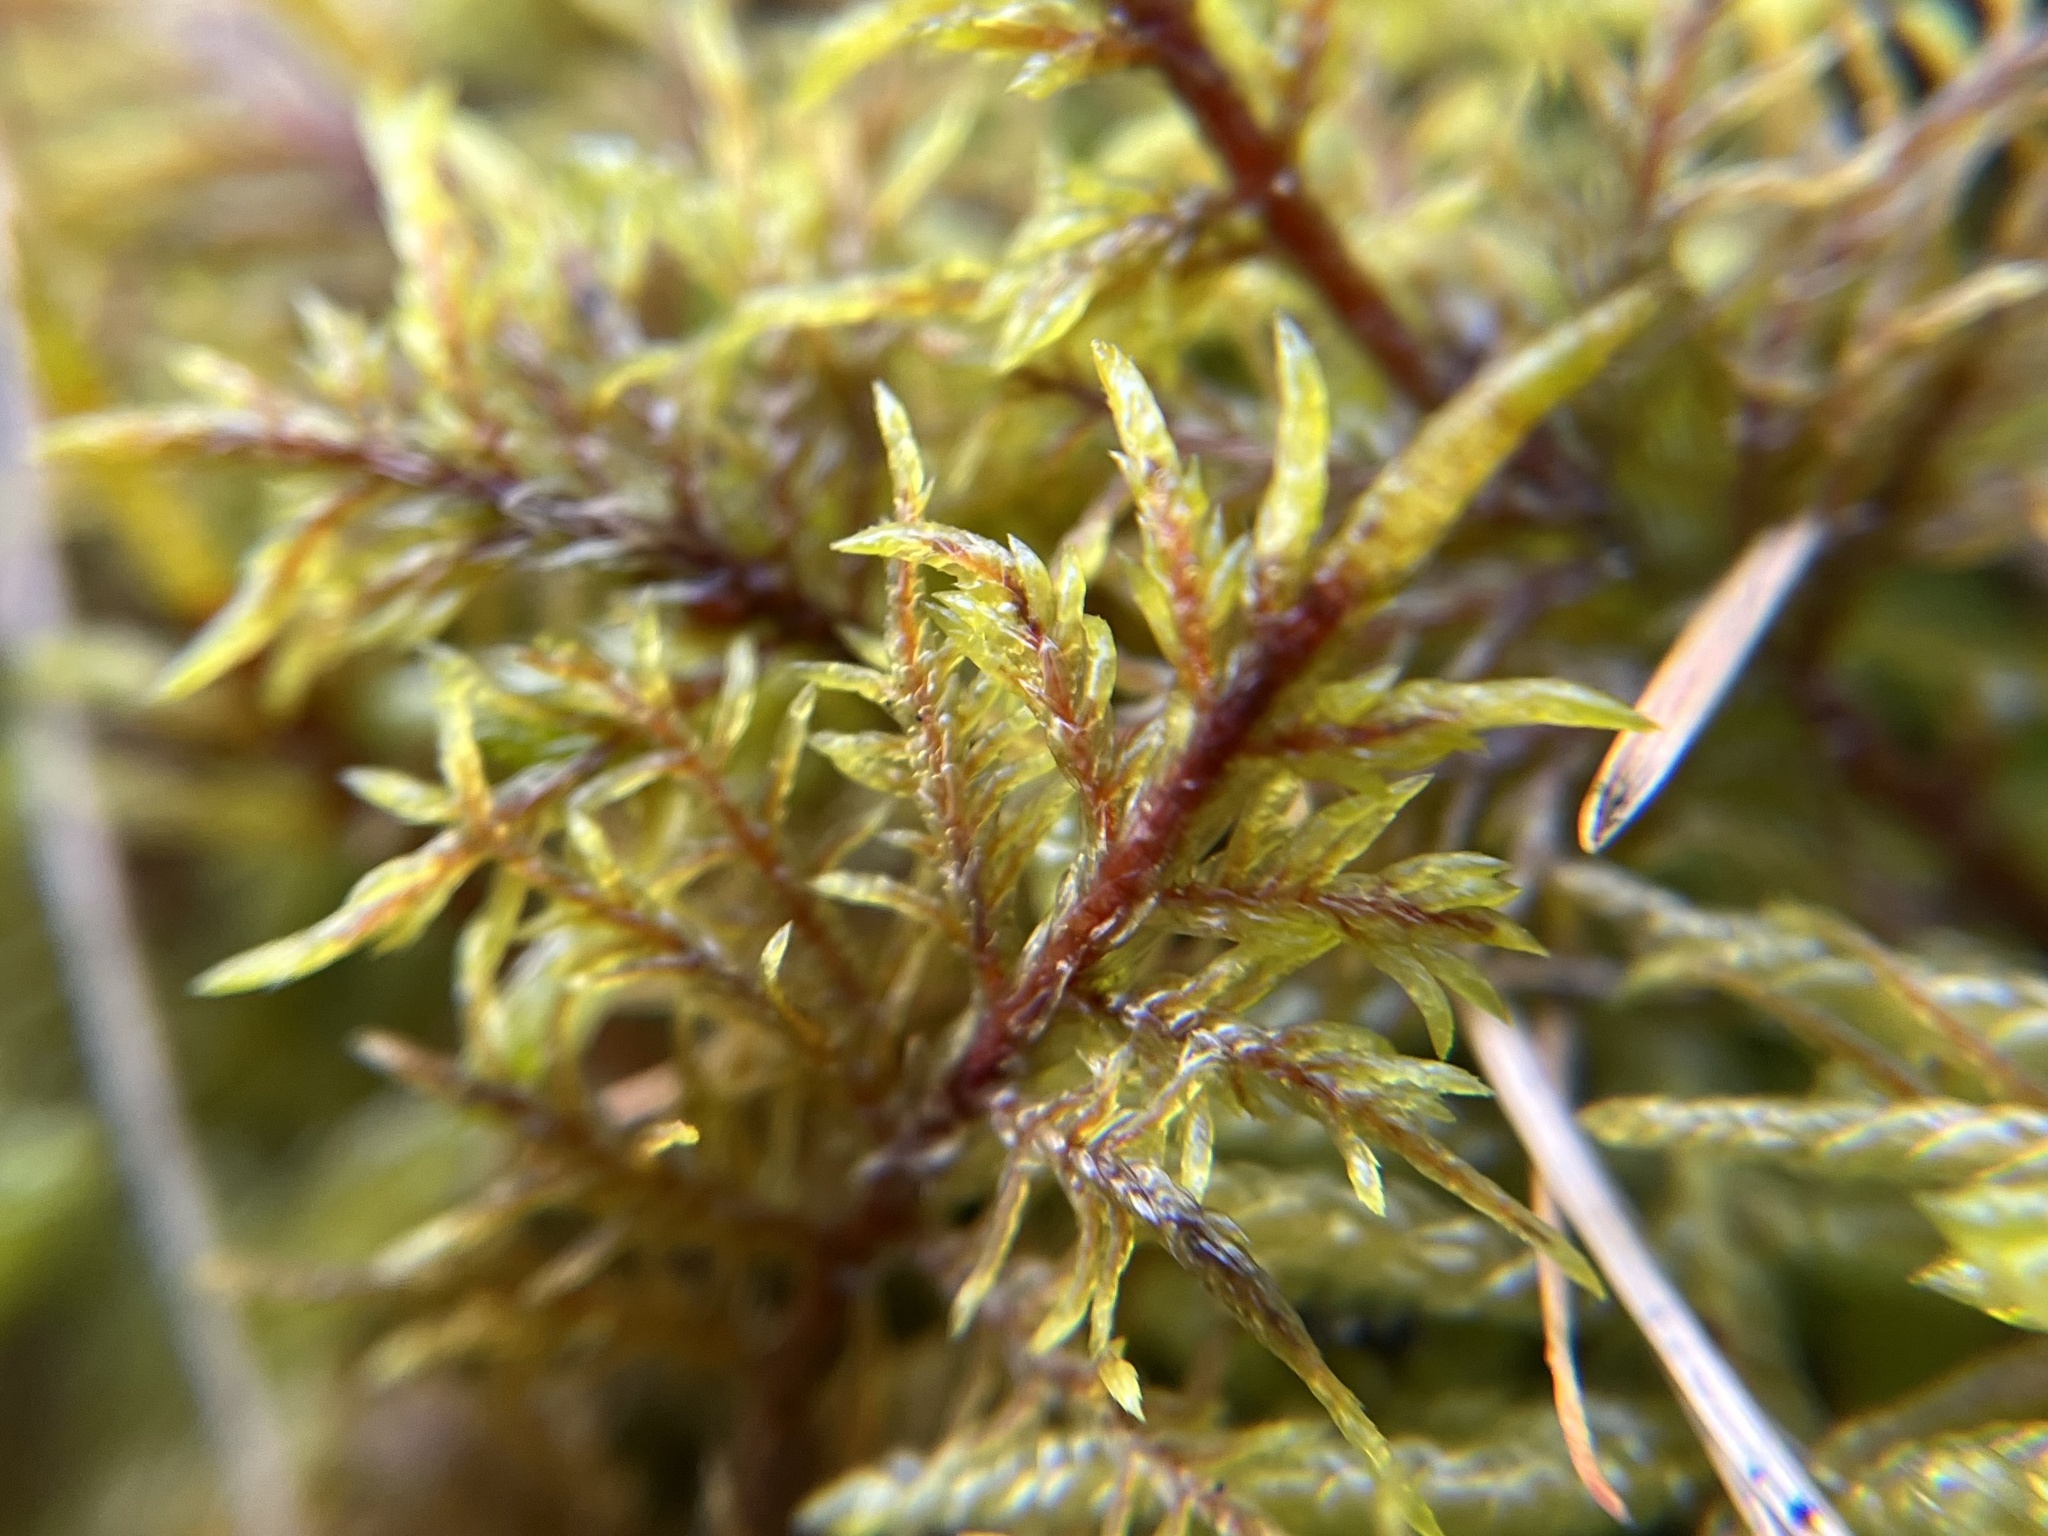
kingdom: Plantae
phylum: Bryophyta
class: Bryopsida
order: Hypnales
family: Hylocomiaceae
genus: Hylocomium
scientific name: Hylocomium splendens
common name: Stairstep moss
